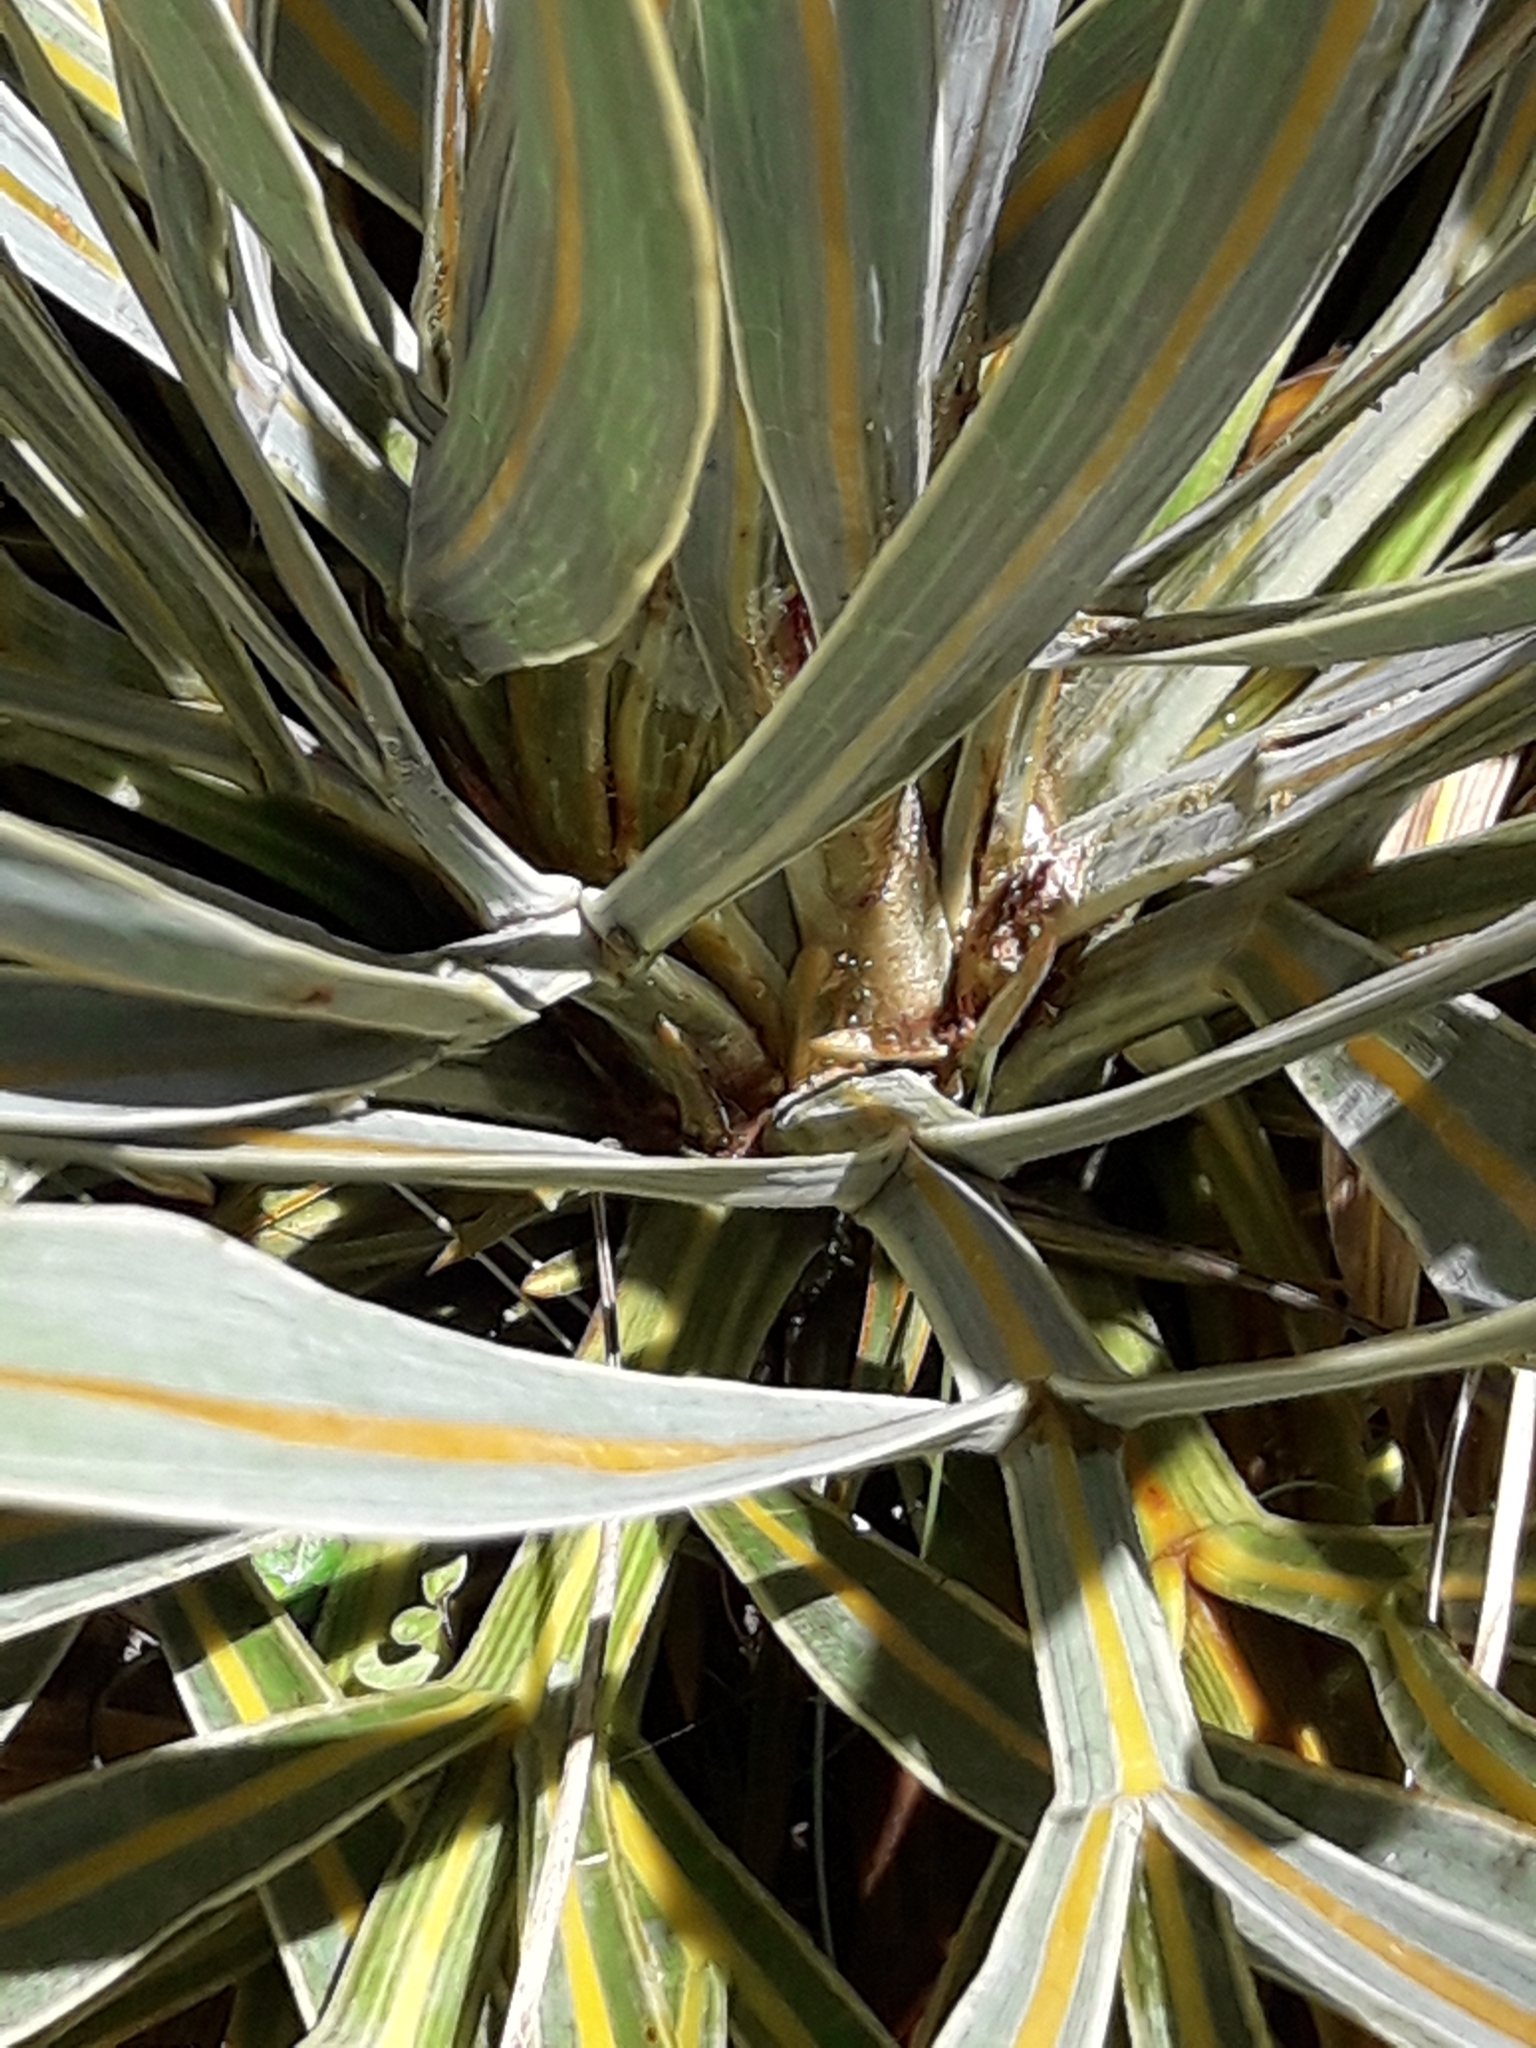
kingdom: Plantae
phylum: Tracheophyta
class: Magnoliopsida
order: Apiales
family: Apiaceae
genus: Aciphylla
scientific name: Aciphylla colensoi
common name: Colenso's spaniard
